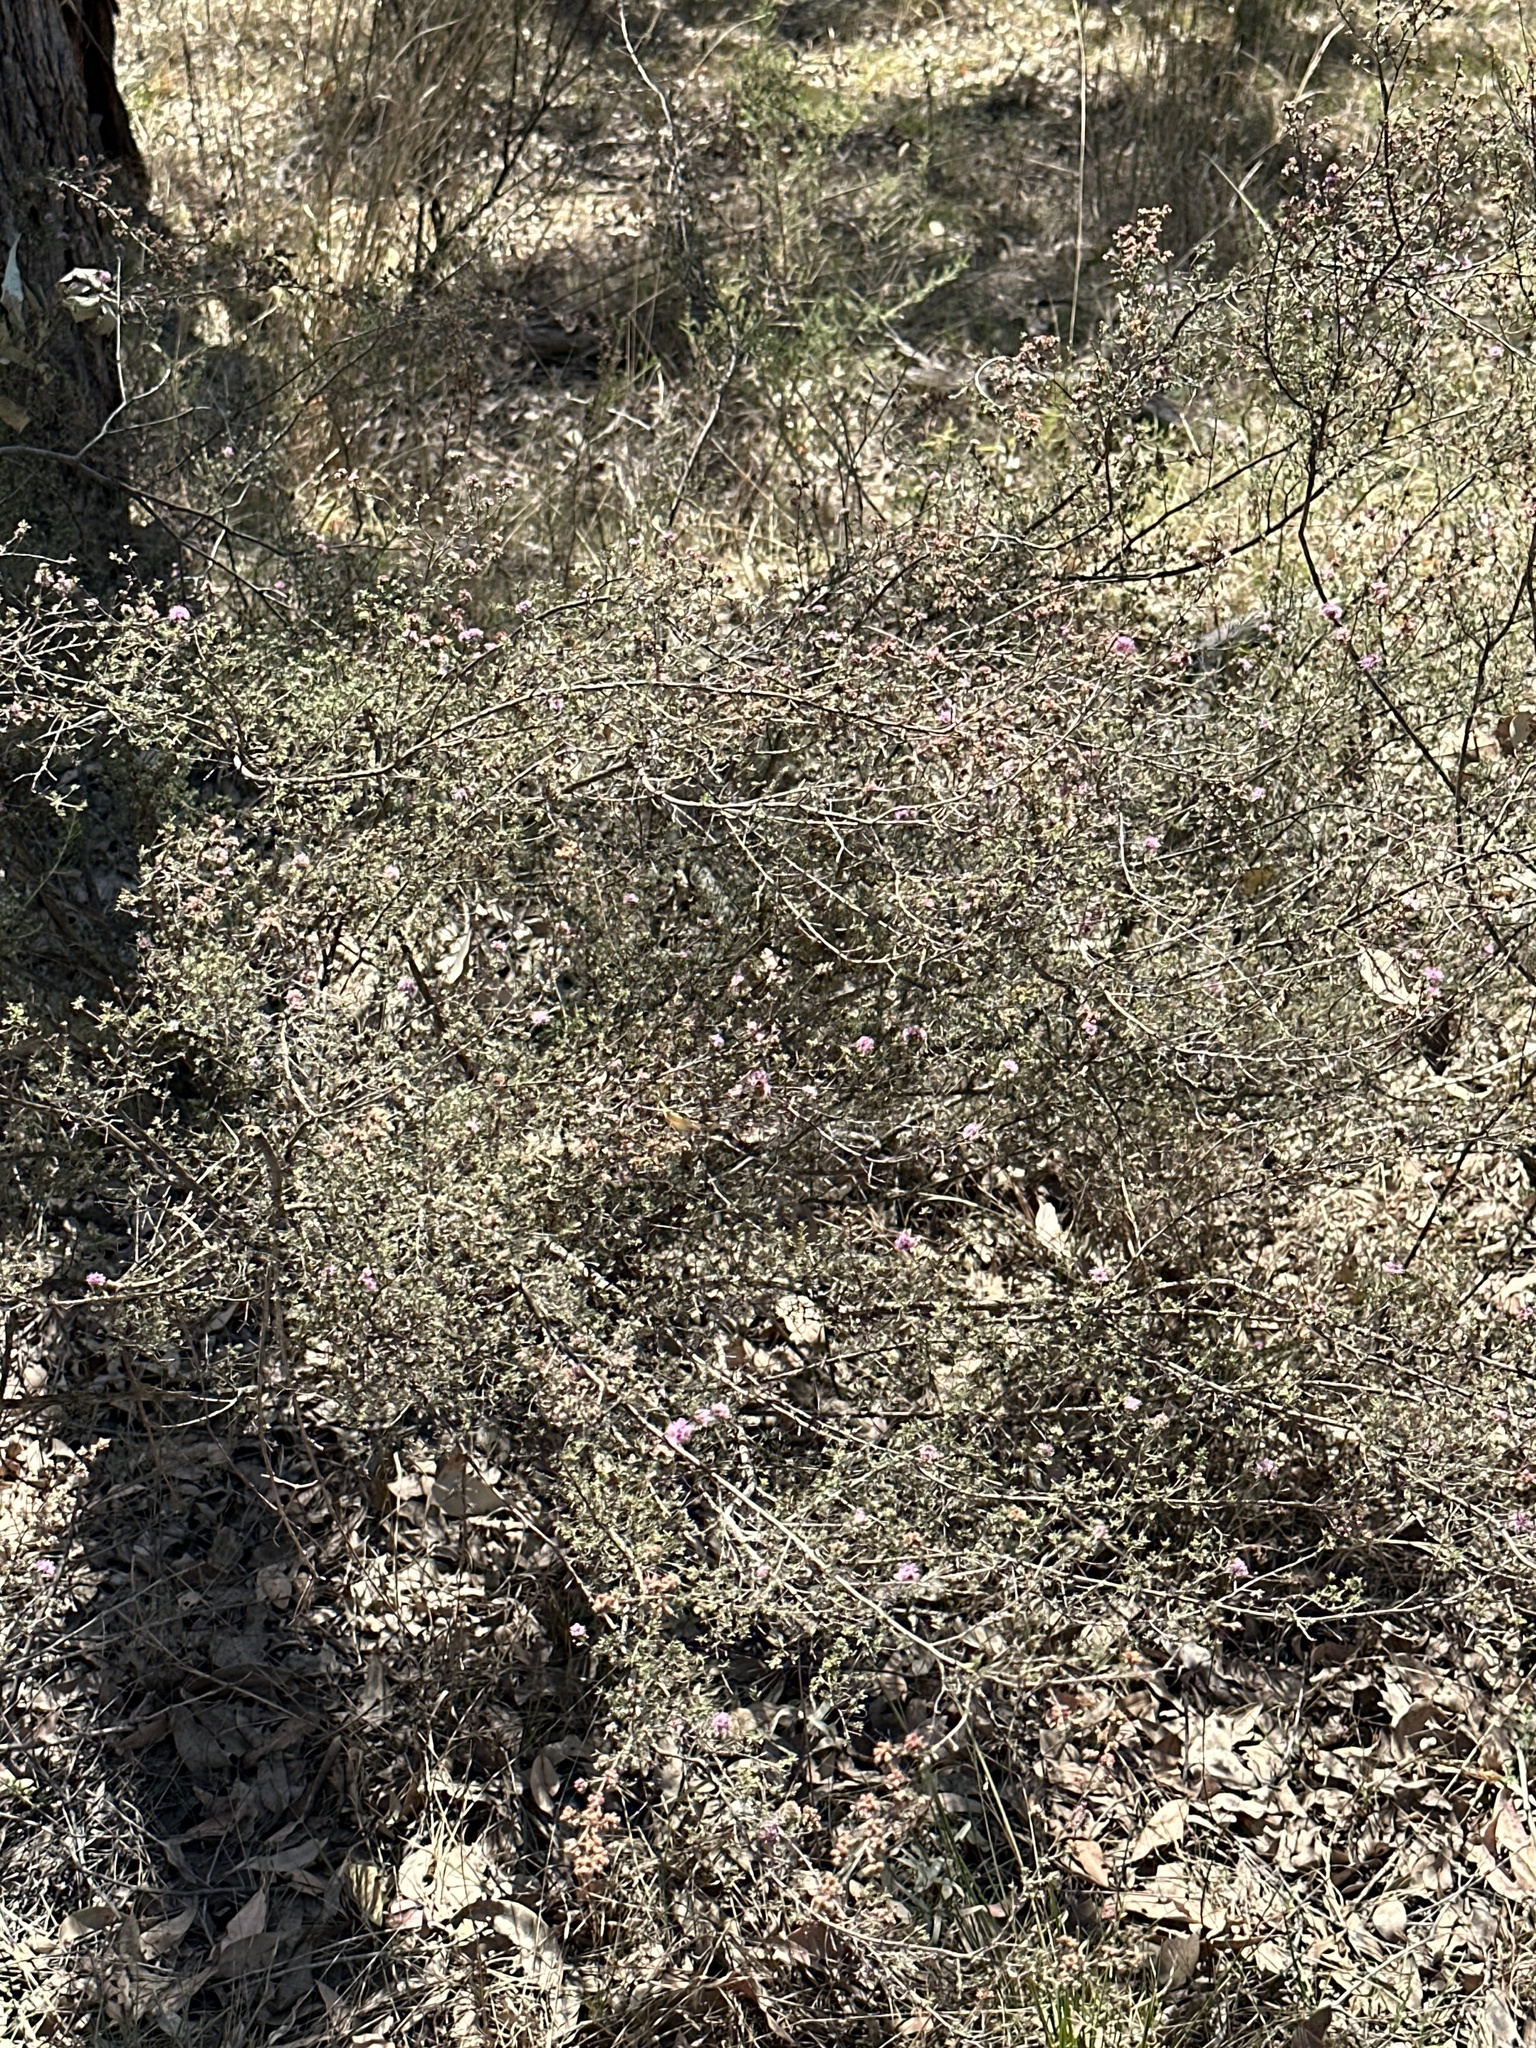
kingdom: Plantae
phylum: Tracheophyta
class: Magnoliopsida
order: Myrtales
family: Myrtaceae
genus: Kunzea
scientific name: Kunzea parvifolia
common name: Violet kunzea
